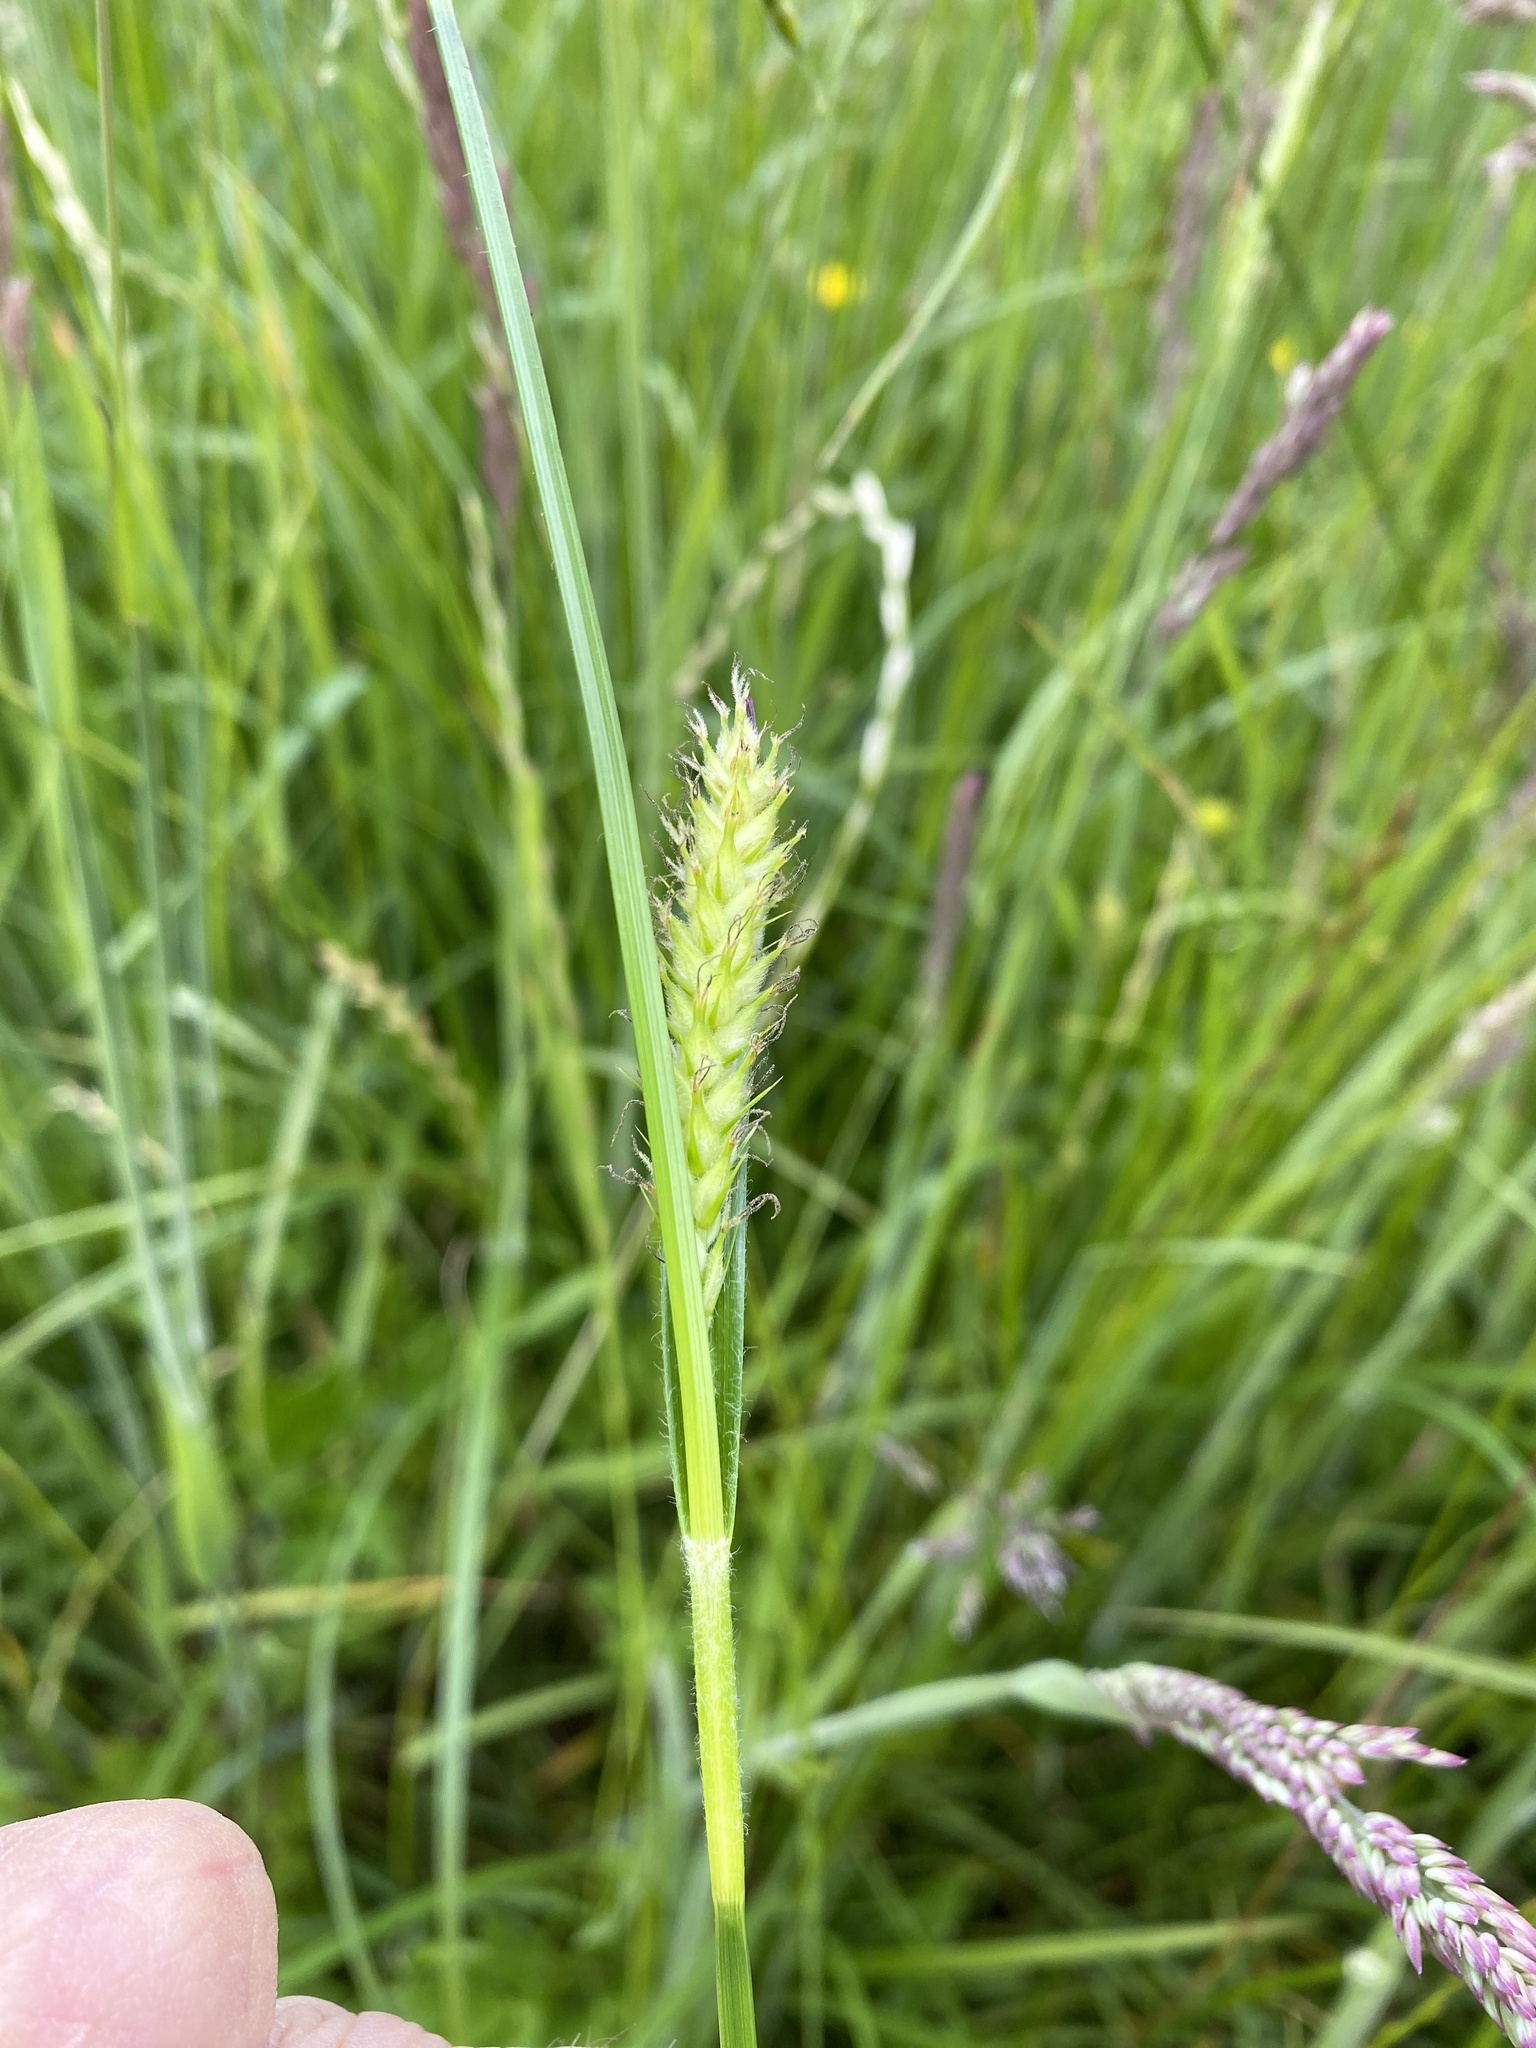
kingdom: Plantae
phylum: Tracheophyta
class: Liliopsida
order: Poales
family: Cyperaceae
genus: Carex
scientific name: Carex hirta
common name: Hairy sedge
